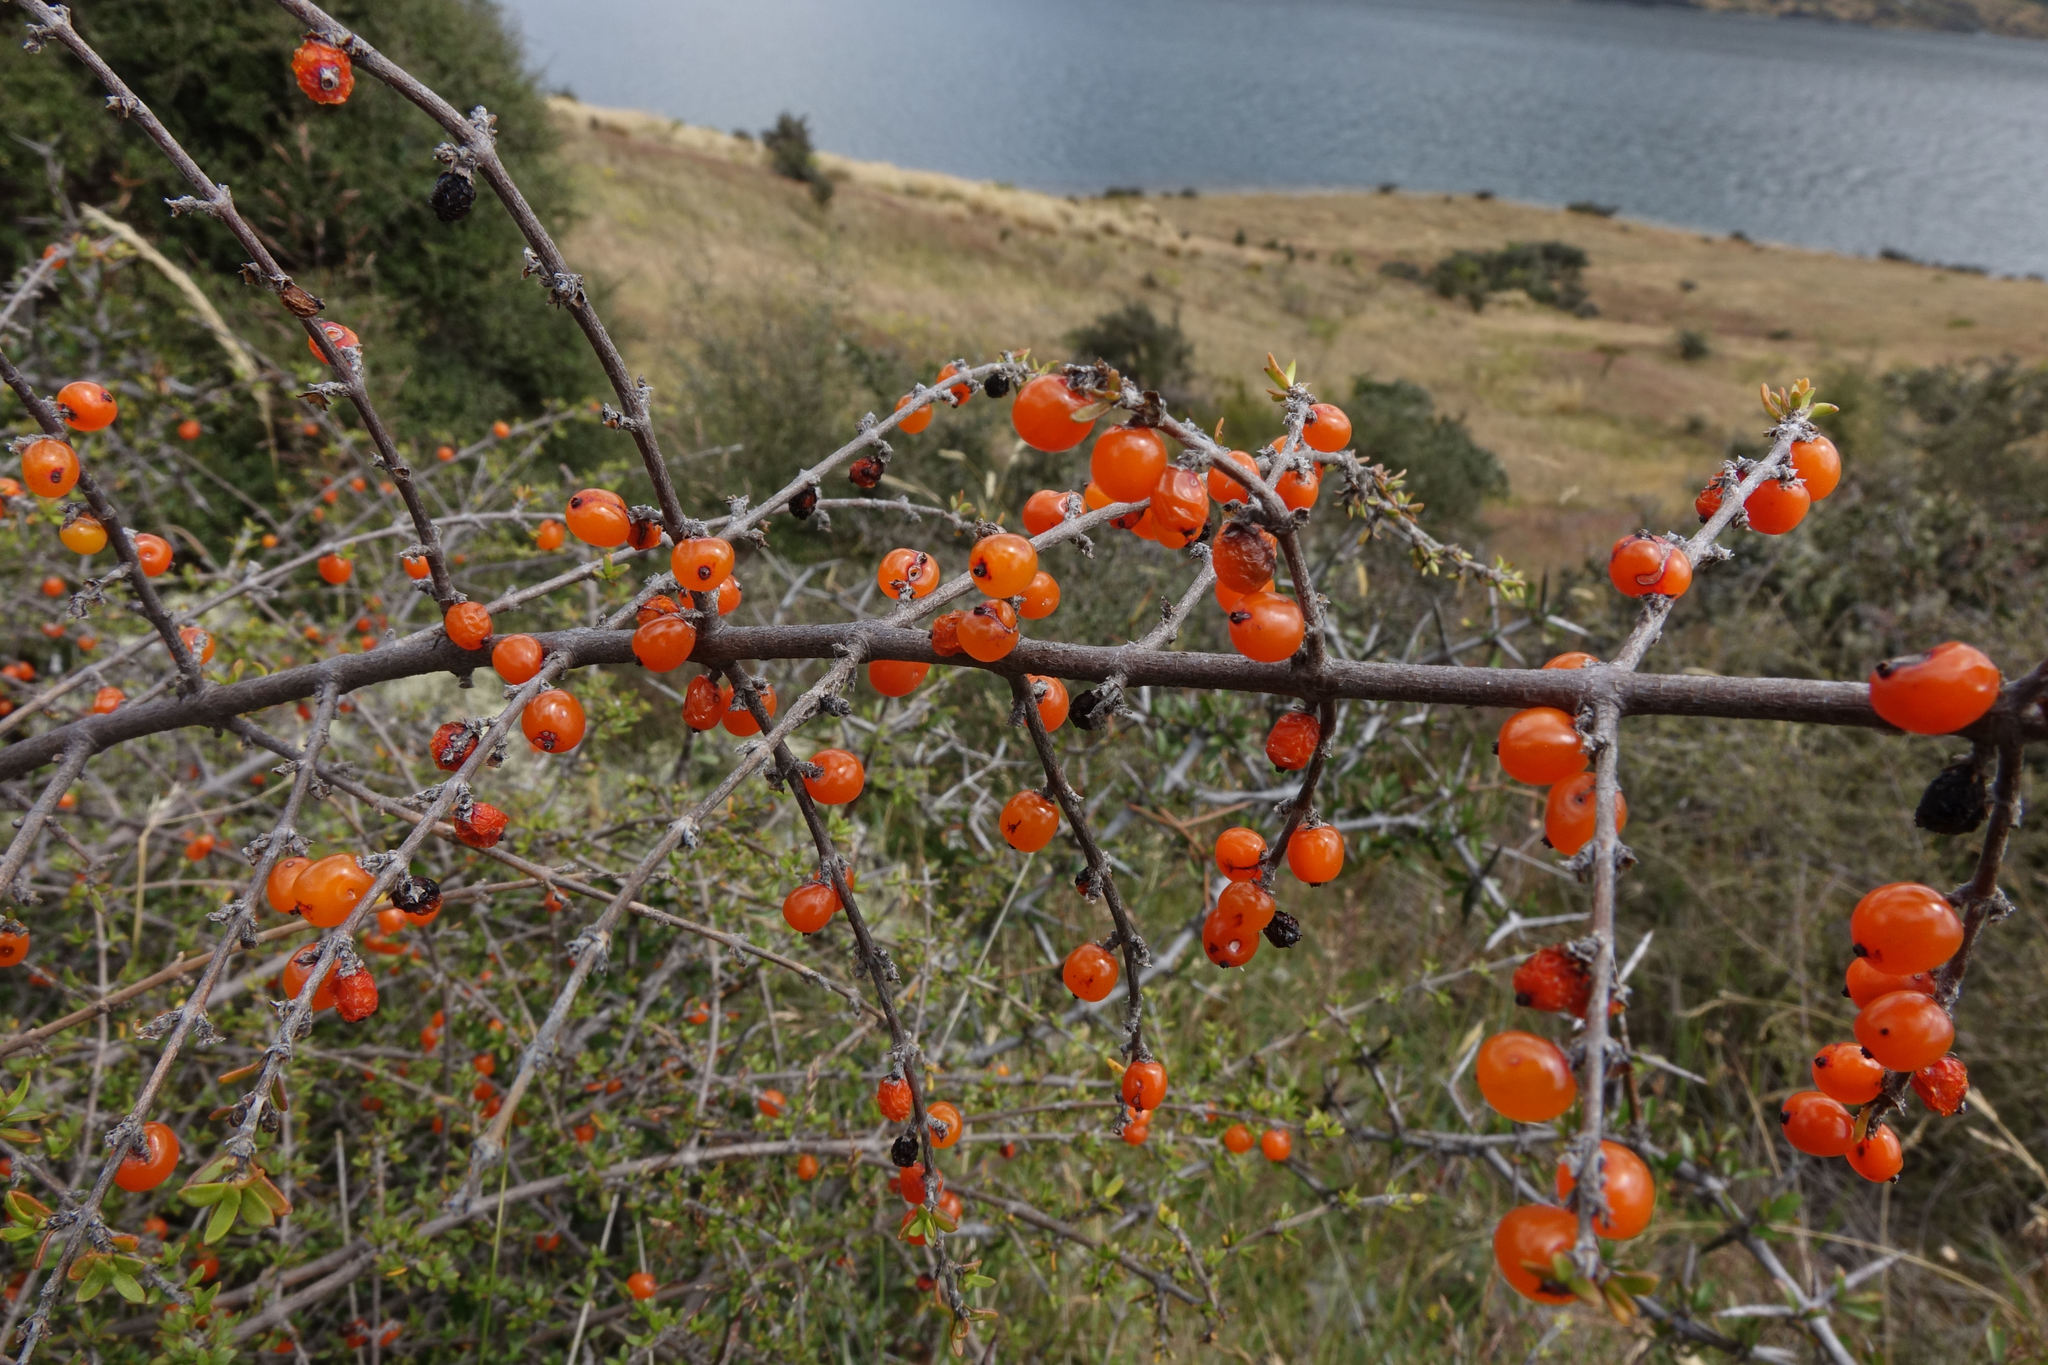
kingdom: Plantae
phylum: Tracheophyta
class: Magnoliopsida
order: Gentianales
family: Rubiaceae
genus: Coprosma
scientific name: Coprosma cheesemanii
